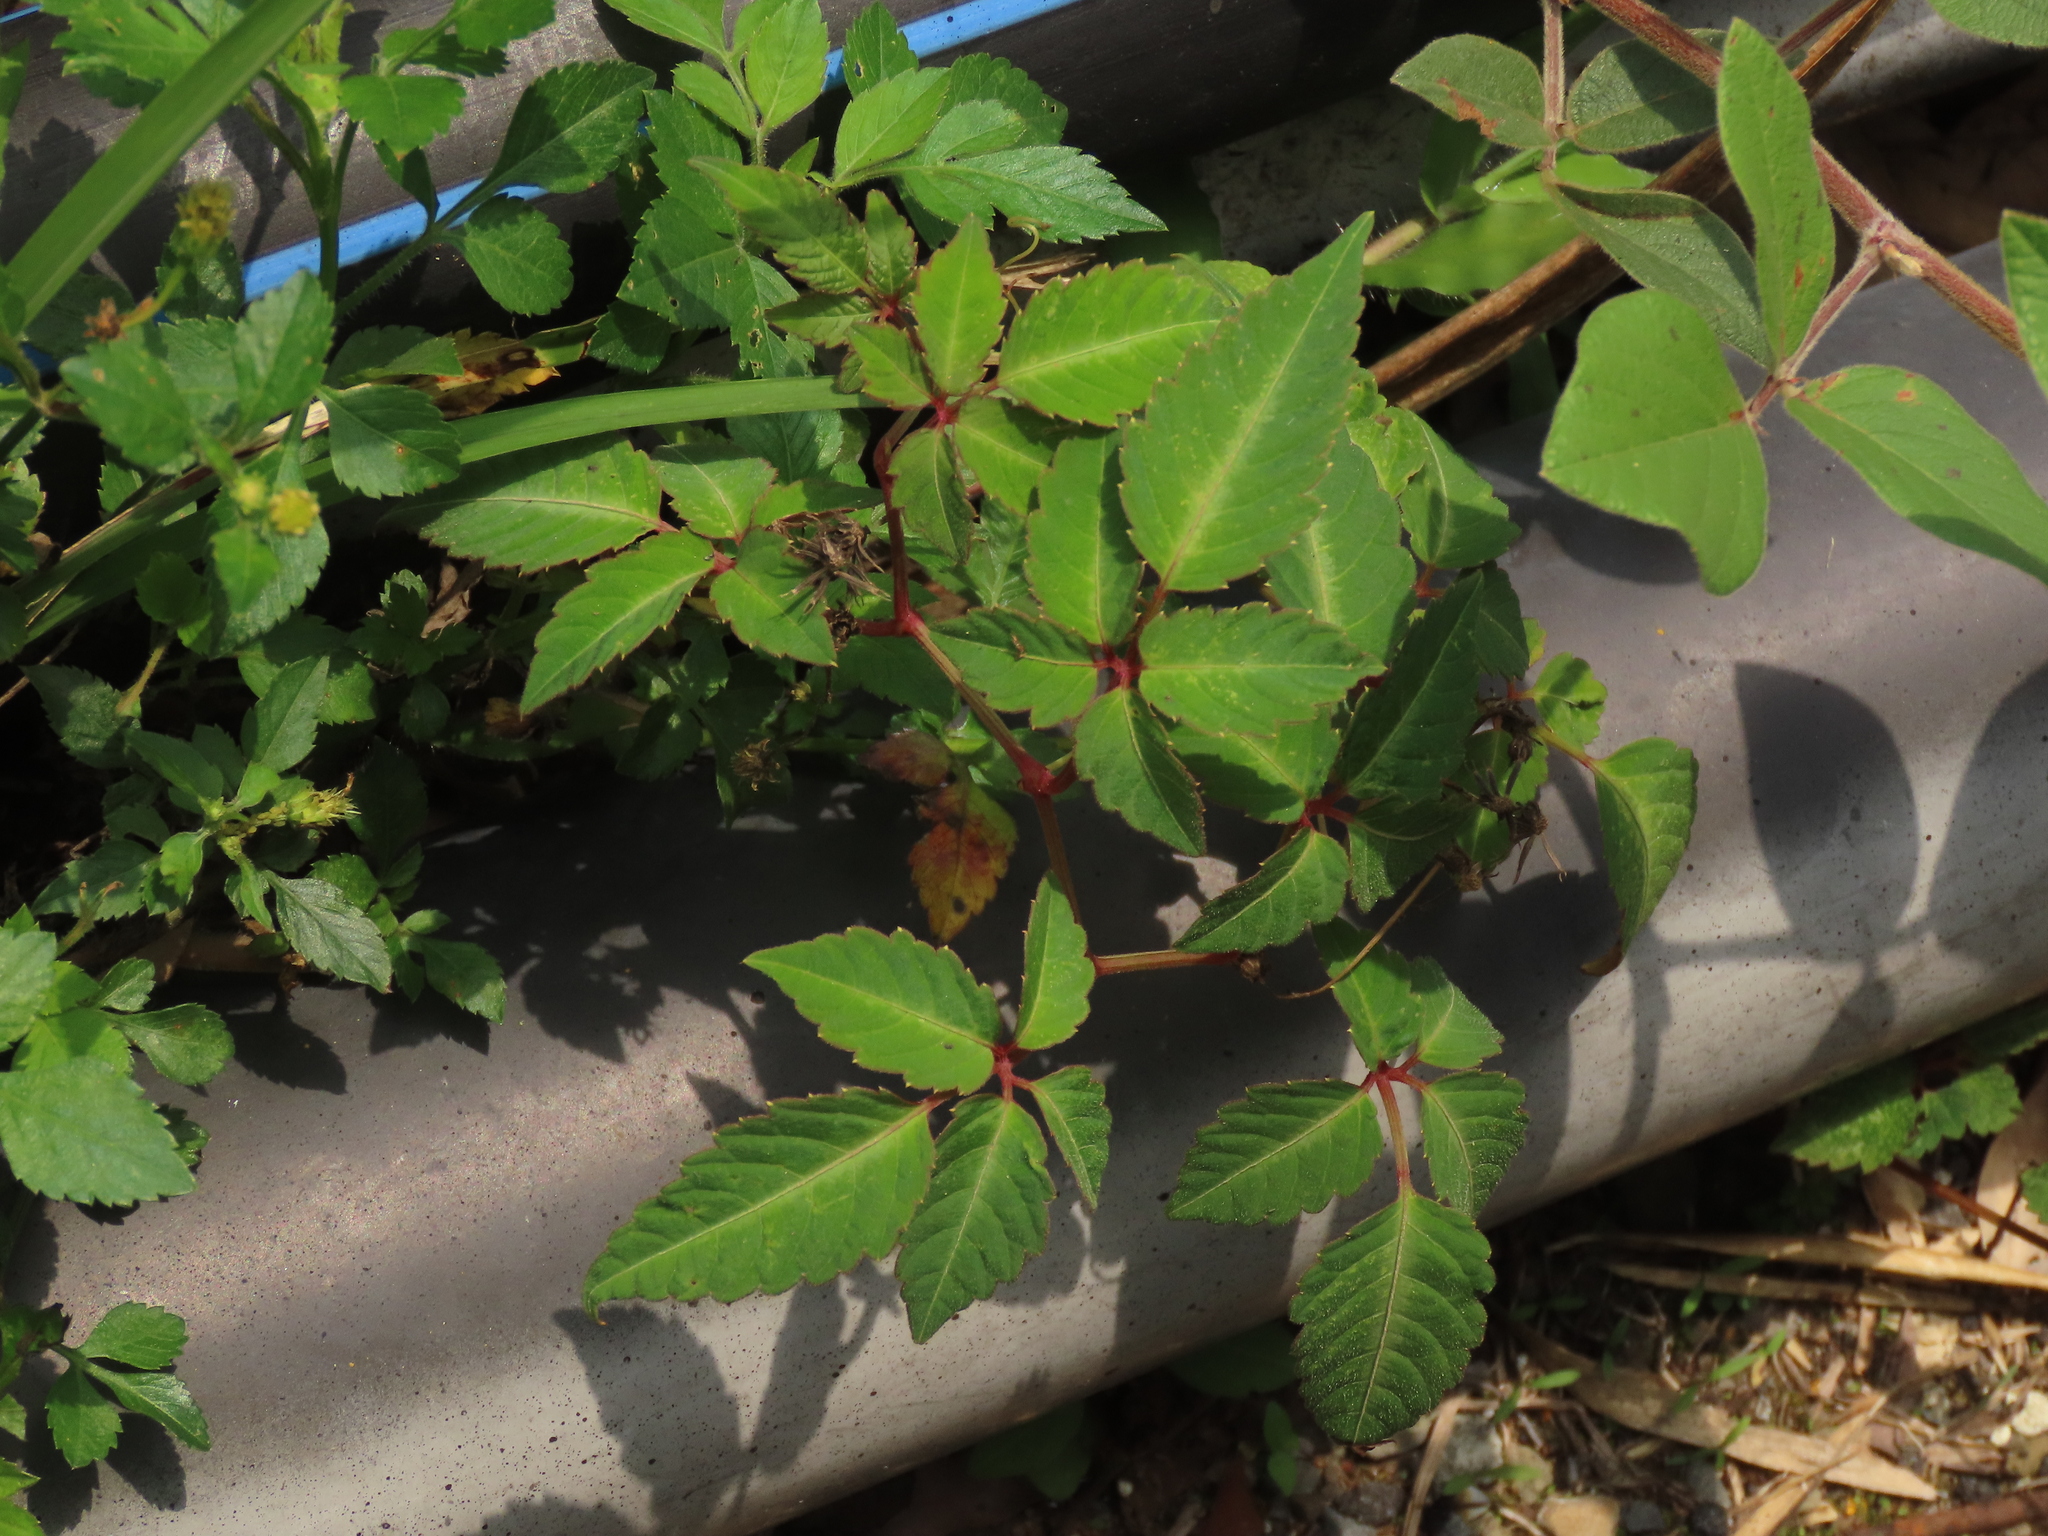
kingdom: Plantae
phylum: Tracheophyta
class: Magnoliopsida
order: Vitales
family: Vitaceae
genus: Pseudocayratia
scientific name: Pseudocayratia pengiana
